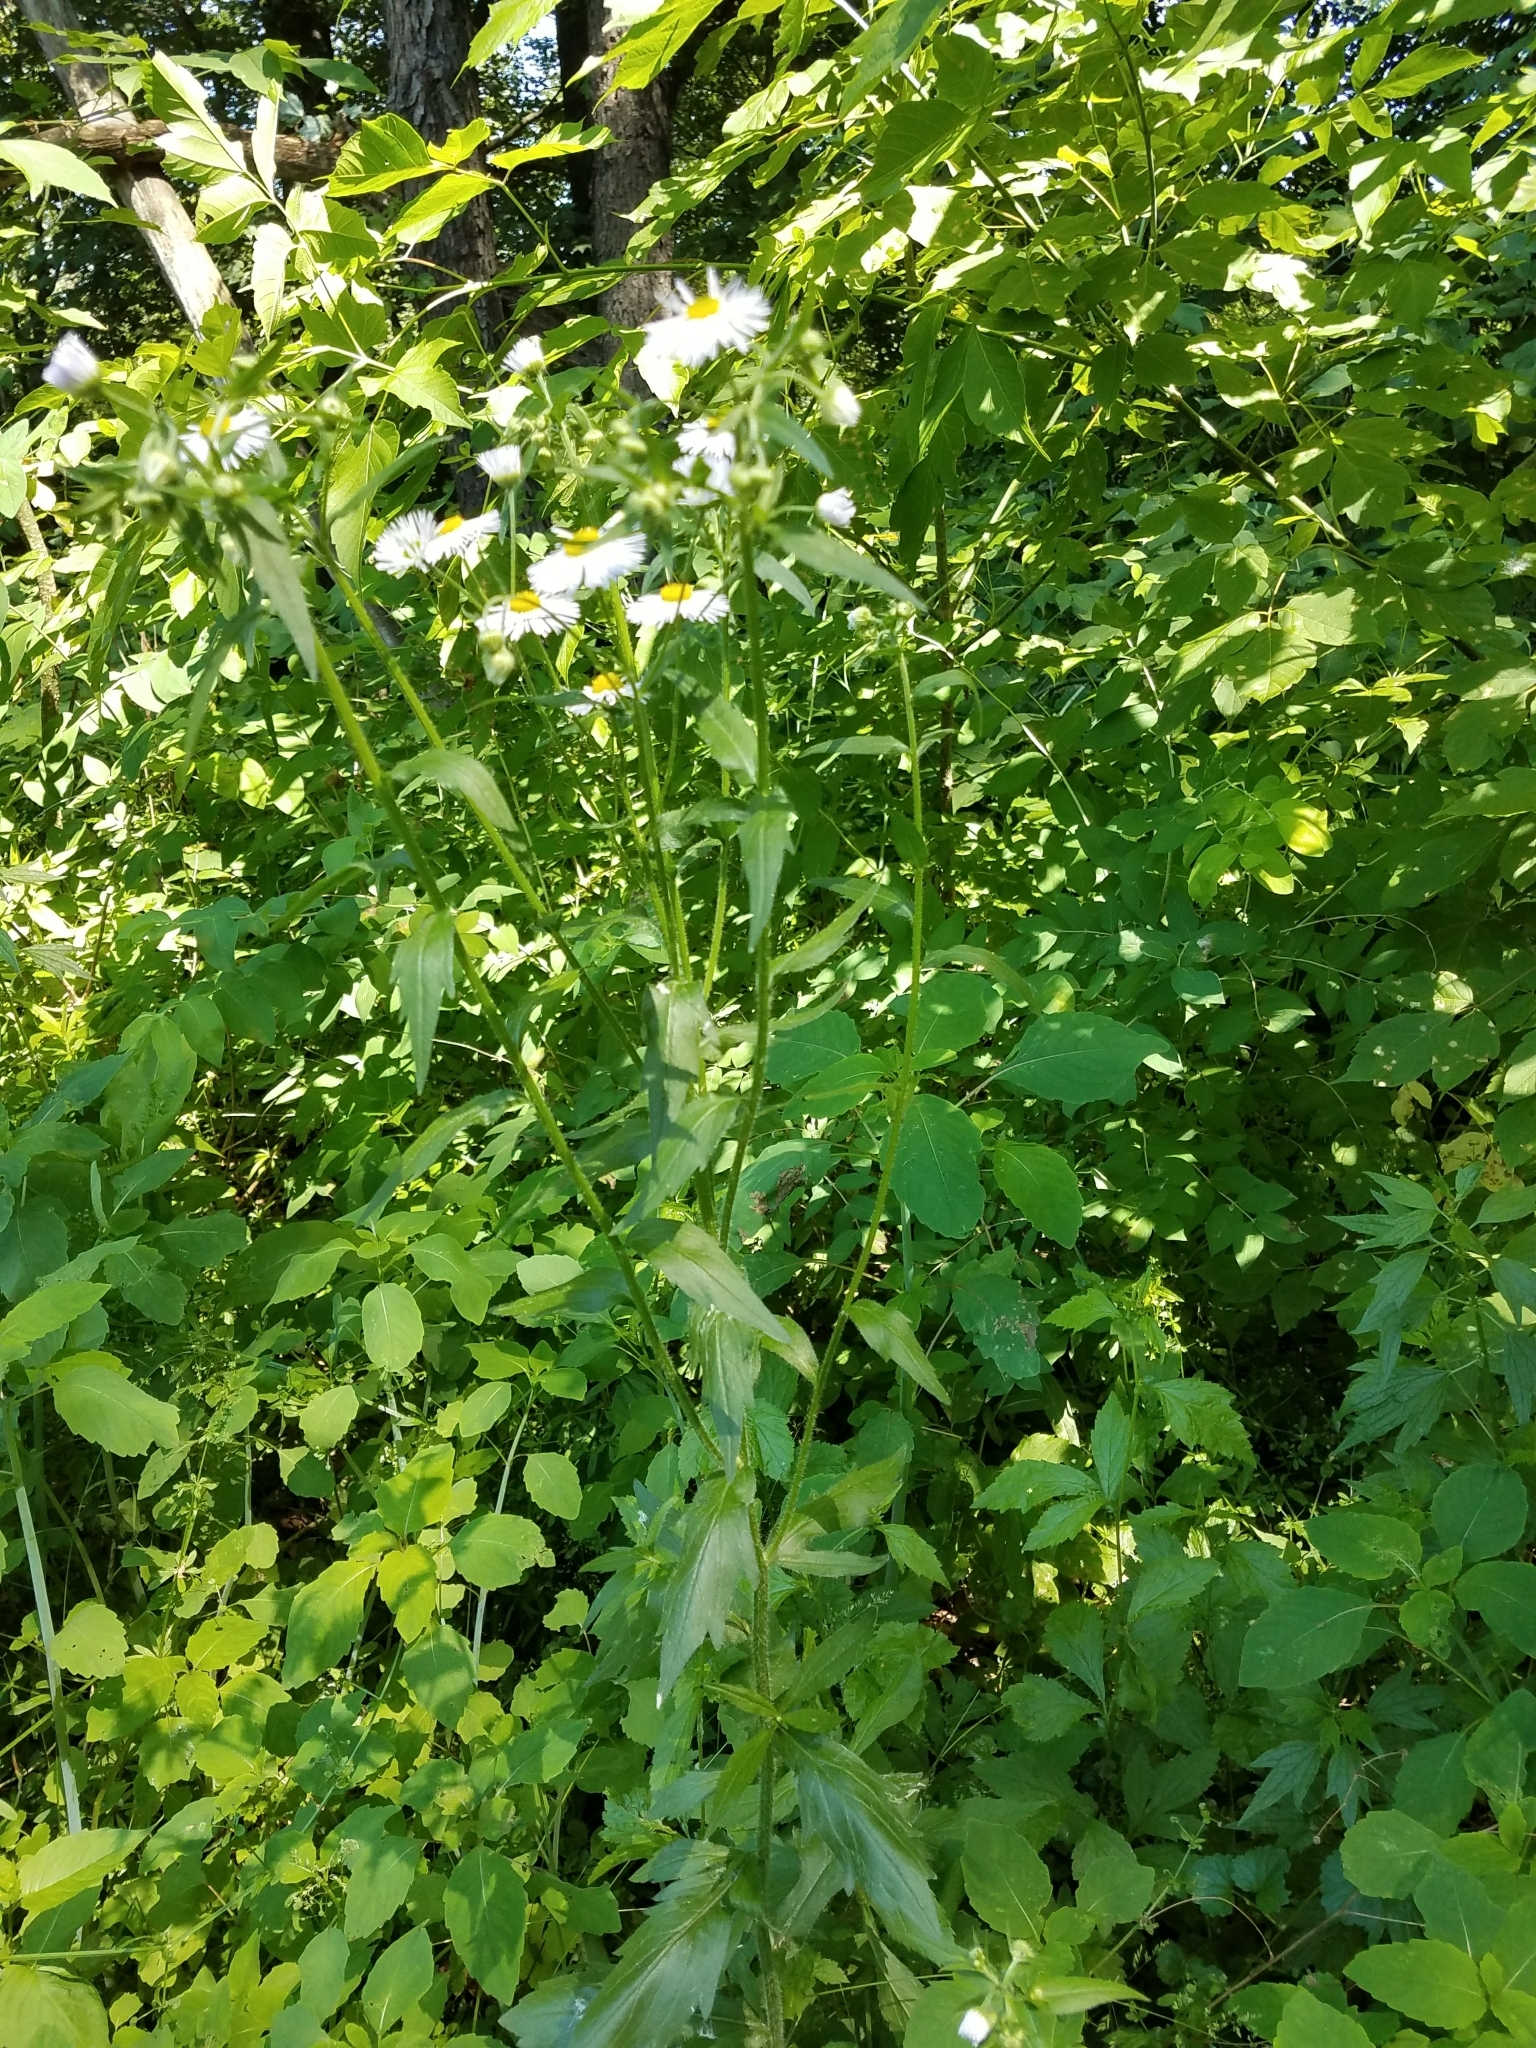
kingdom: Plantae
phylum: Tracheophyta
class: Magnoliopsida
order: Asterales
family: Asteraceae
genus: Erigeron
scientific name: Erigeron strigosus
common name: Common eastern fleabane
